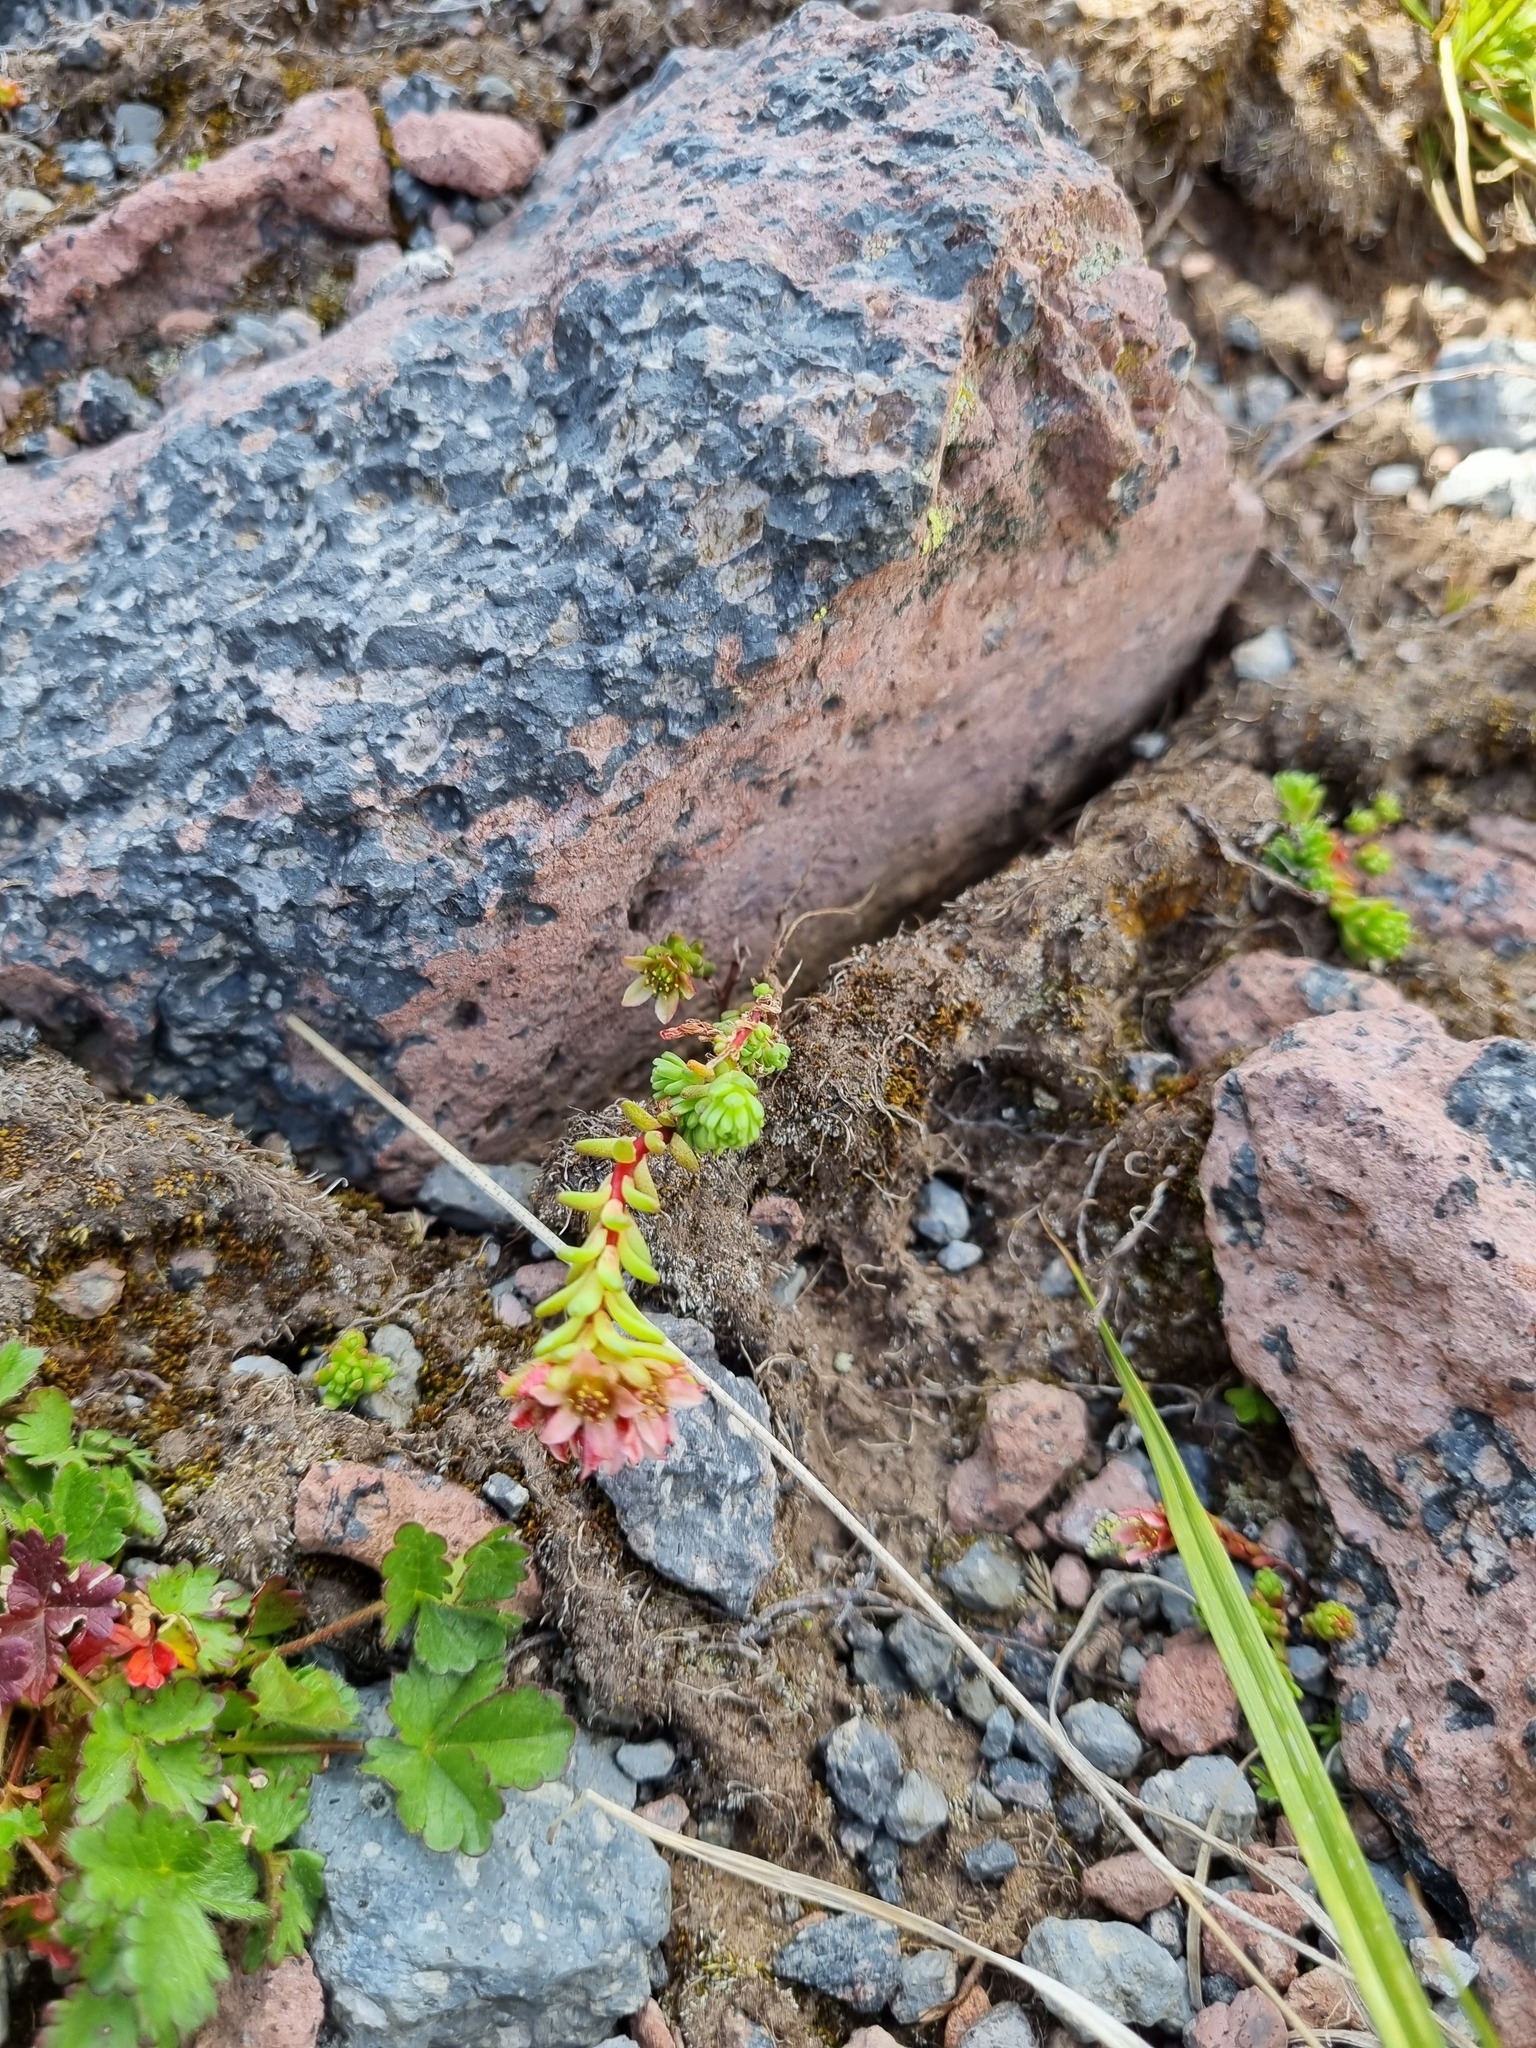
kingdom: Plantae
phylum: Tracheophyta
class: Magnoliopsida
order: Saxifragales
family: Crassulaceae
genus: Sedum
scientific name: Sedum tenellum
